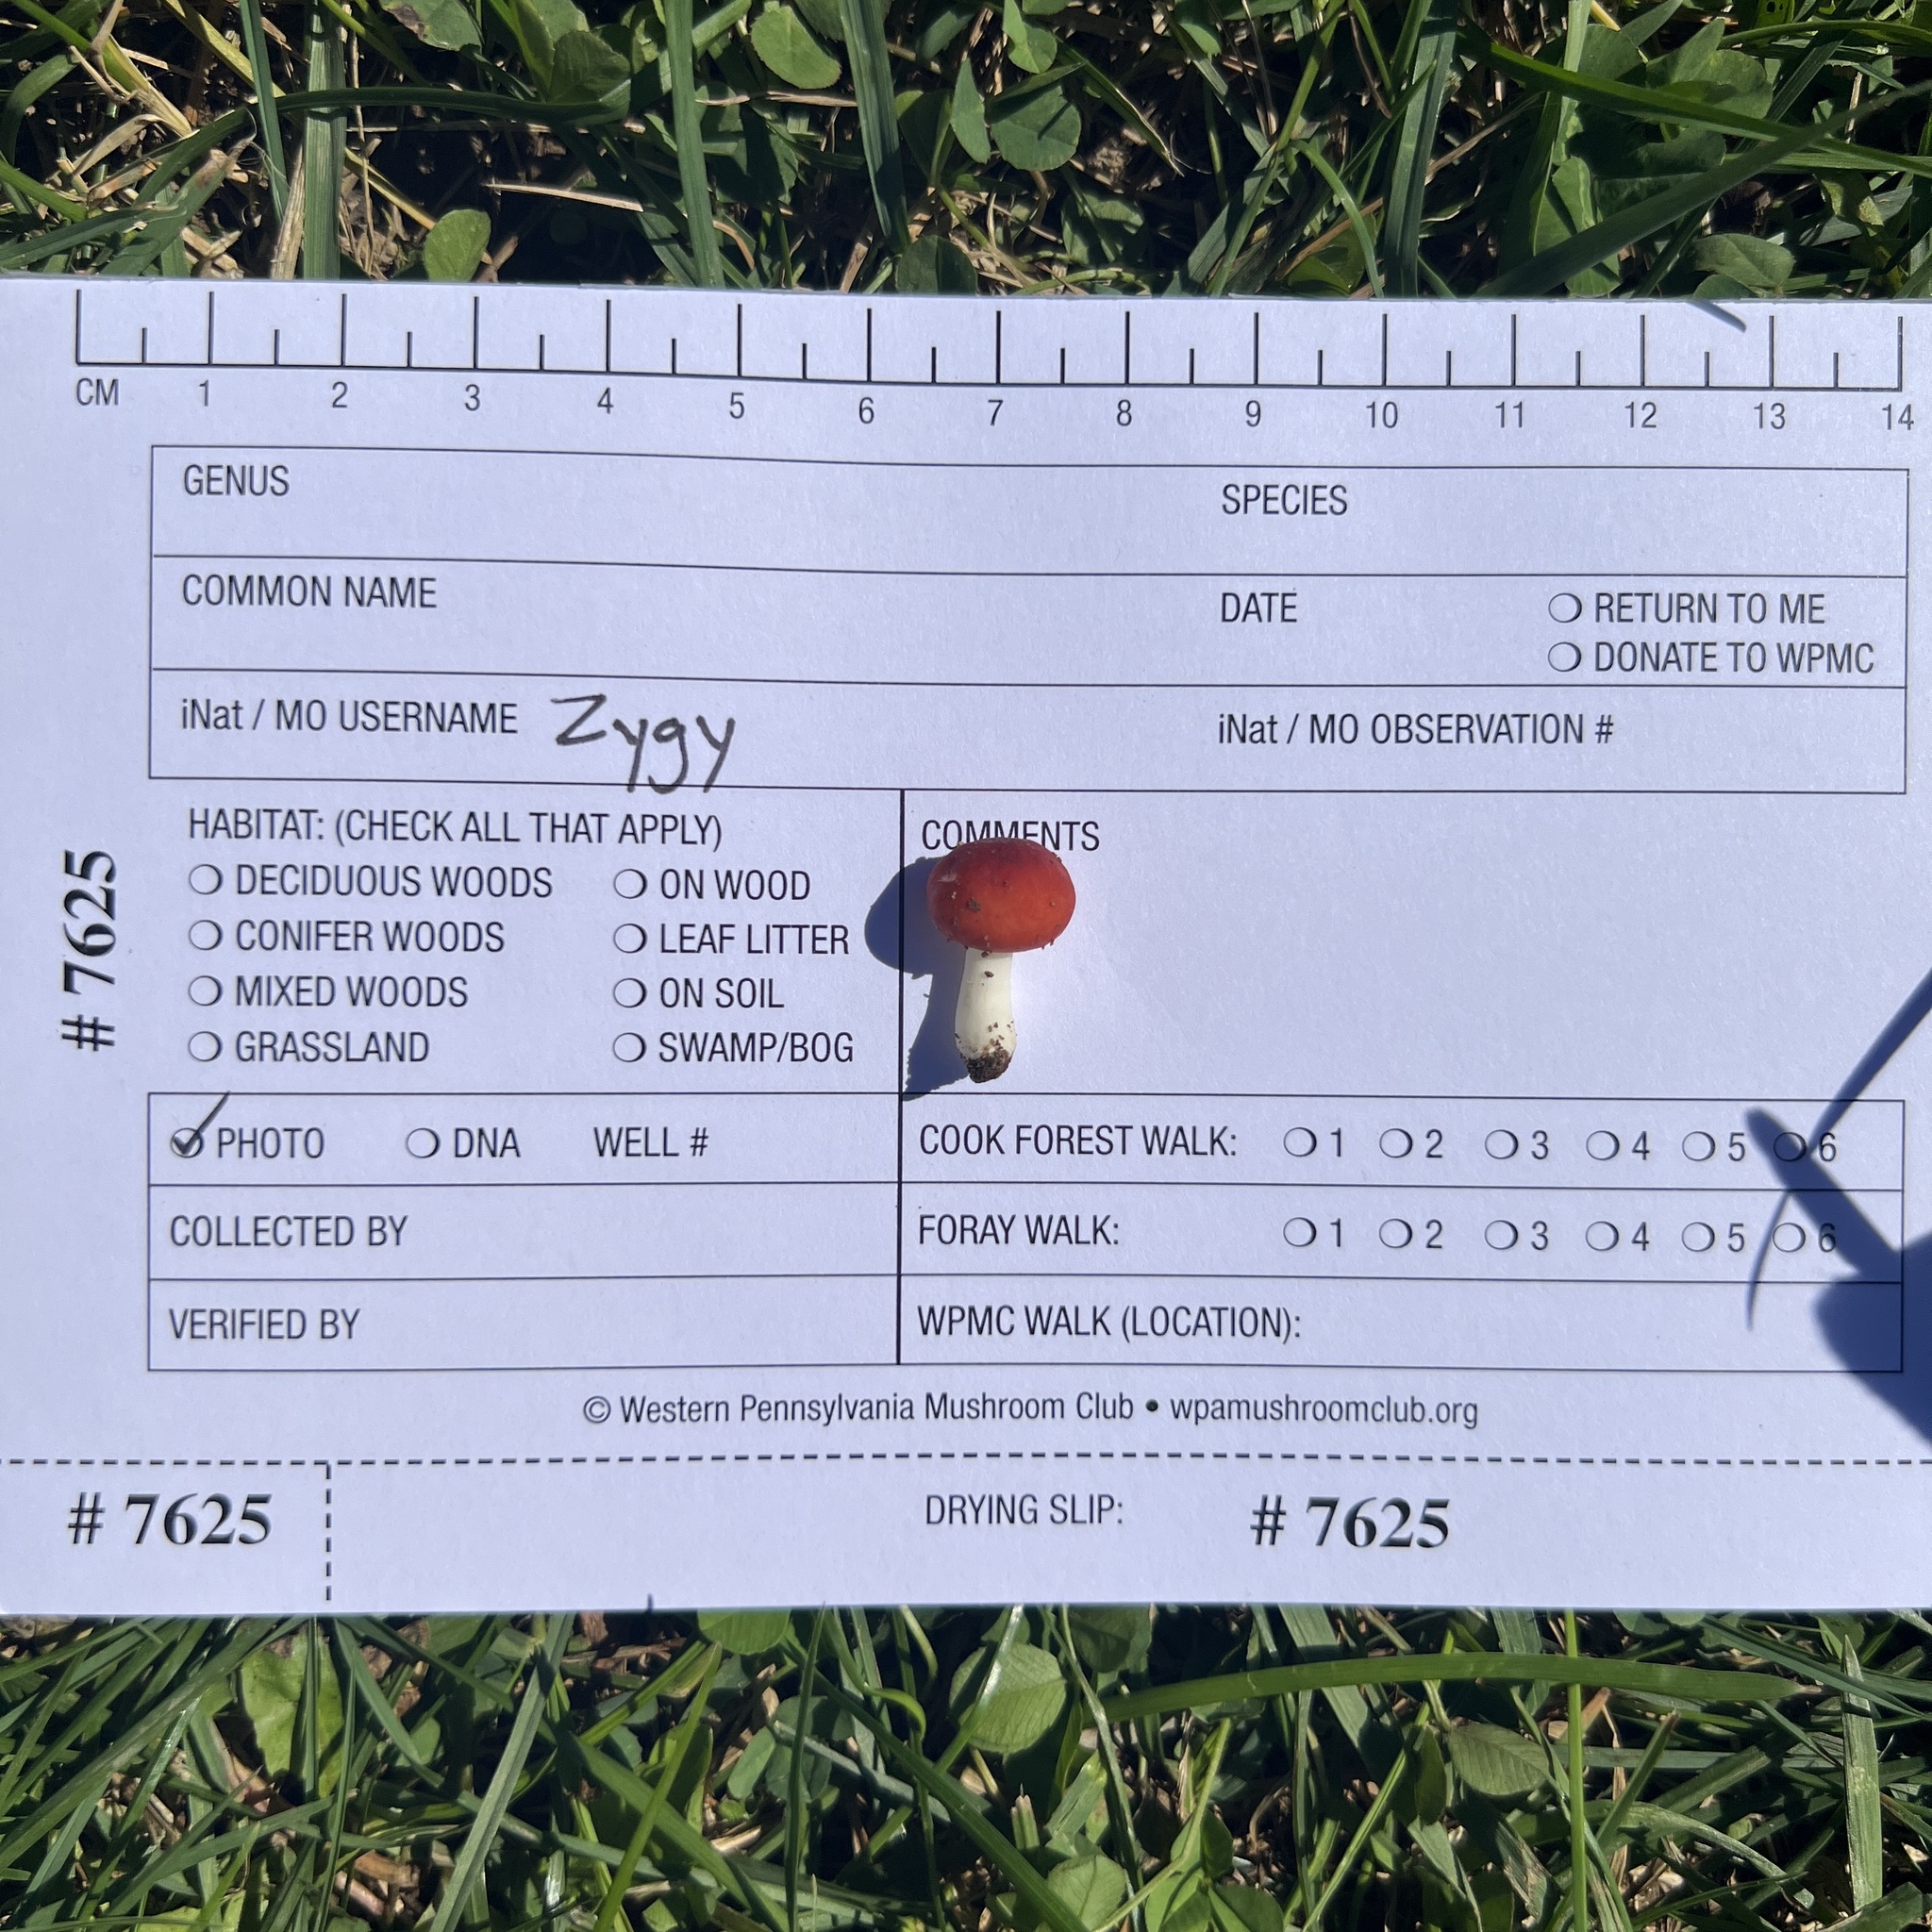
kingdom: Fungi
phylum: Basidiomycota
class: Agaricomycetes
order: Russulales
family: Russulaceae
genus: Russula
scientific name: Russula
